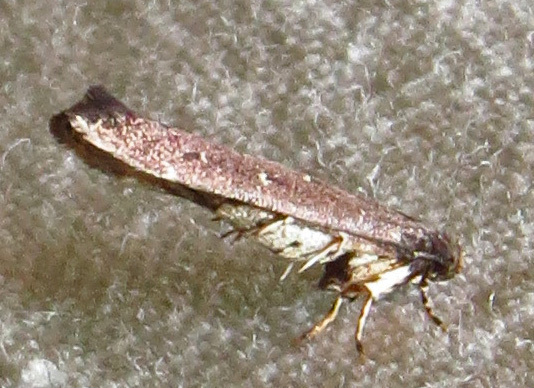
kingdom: Animalia
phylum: Arthropoda
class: Insecta
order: Lepidoptera
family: Cosmopterigidae
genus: Ithome
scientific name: Ithome erransella
